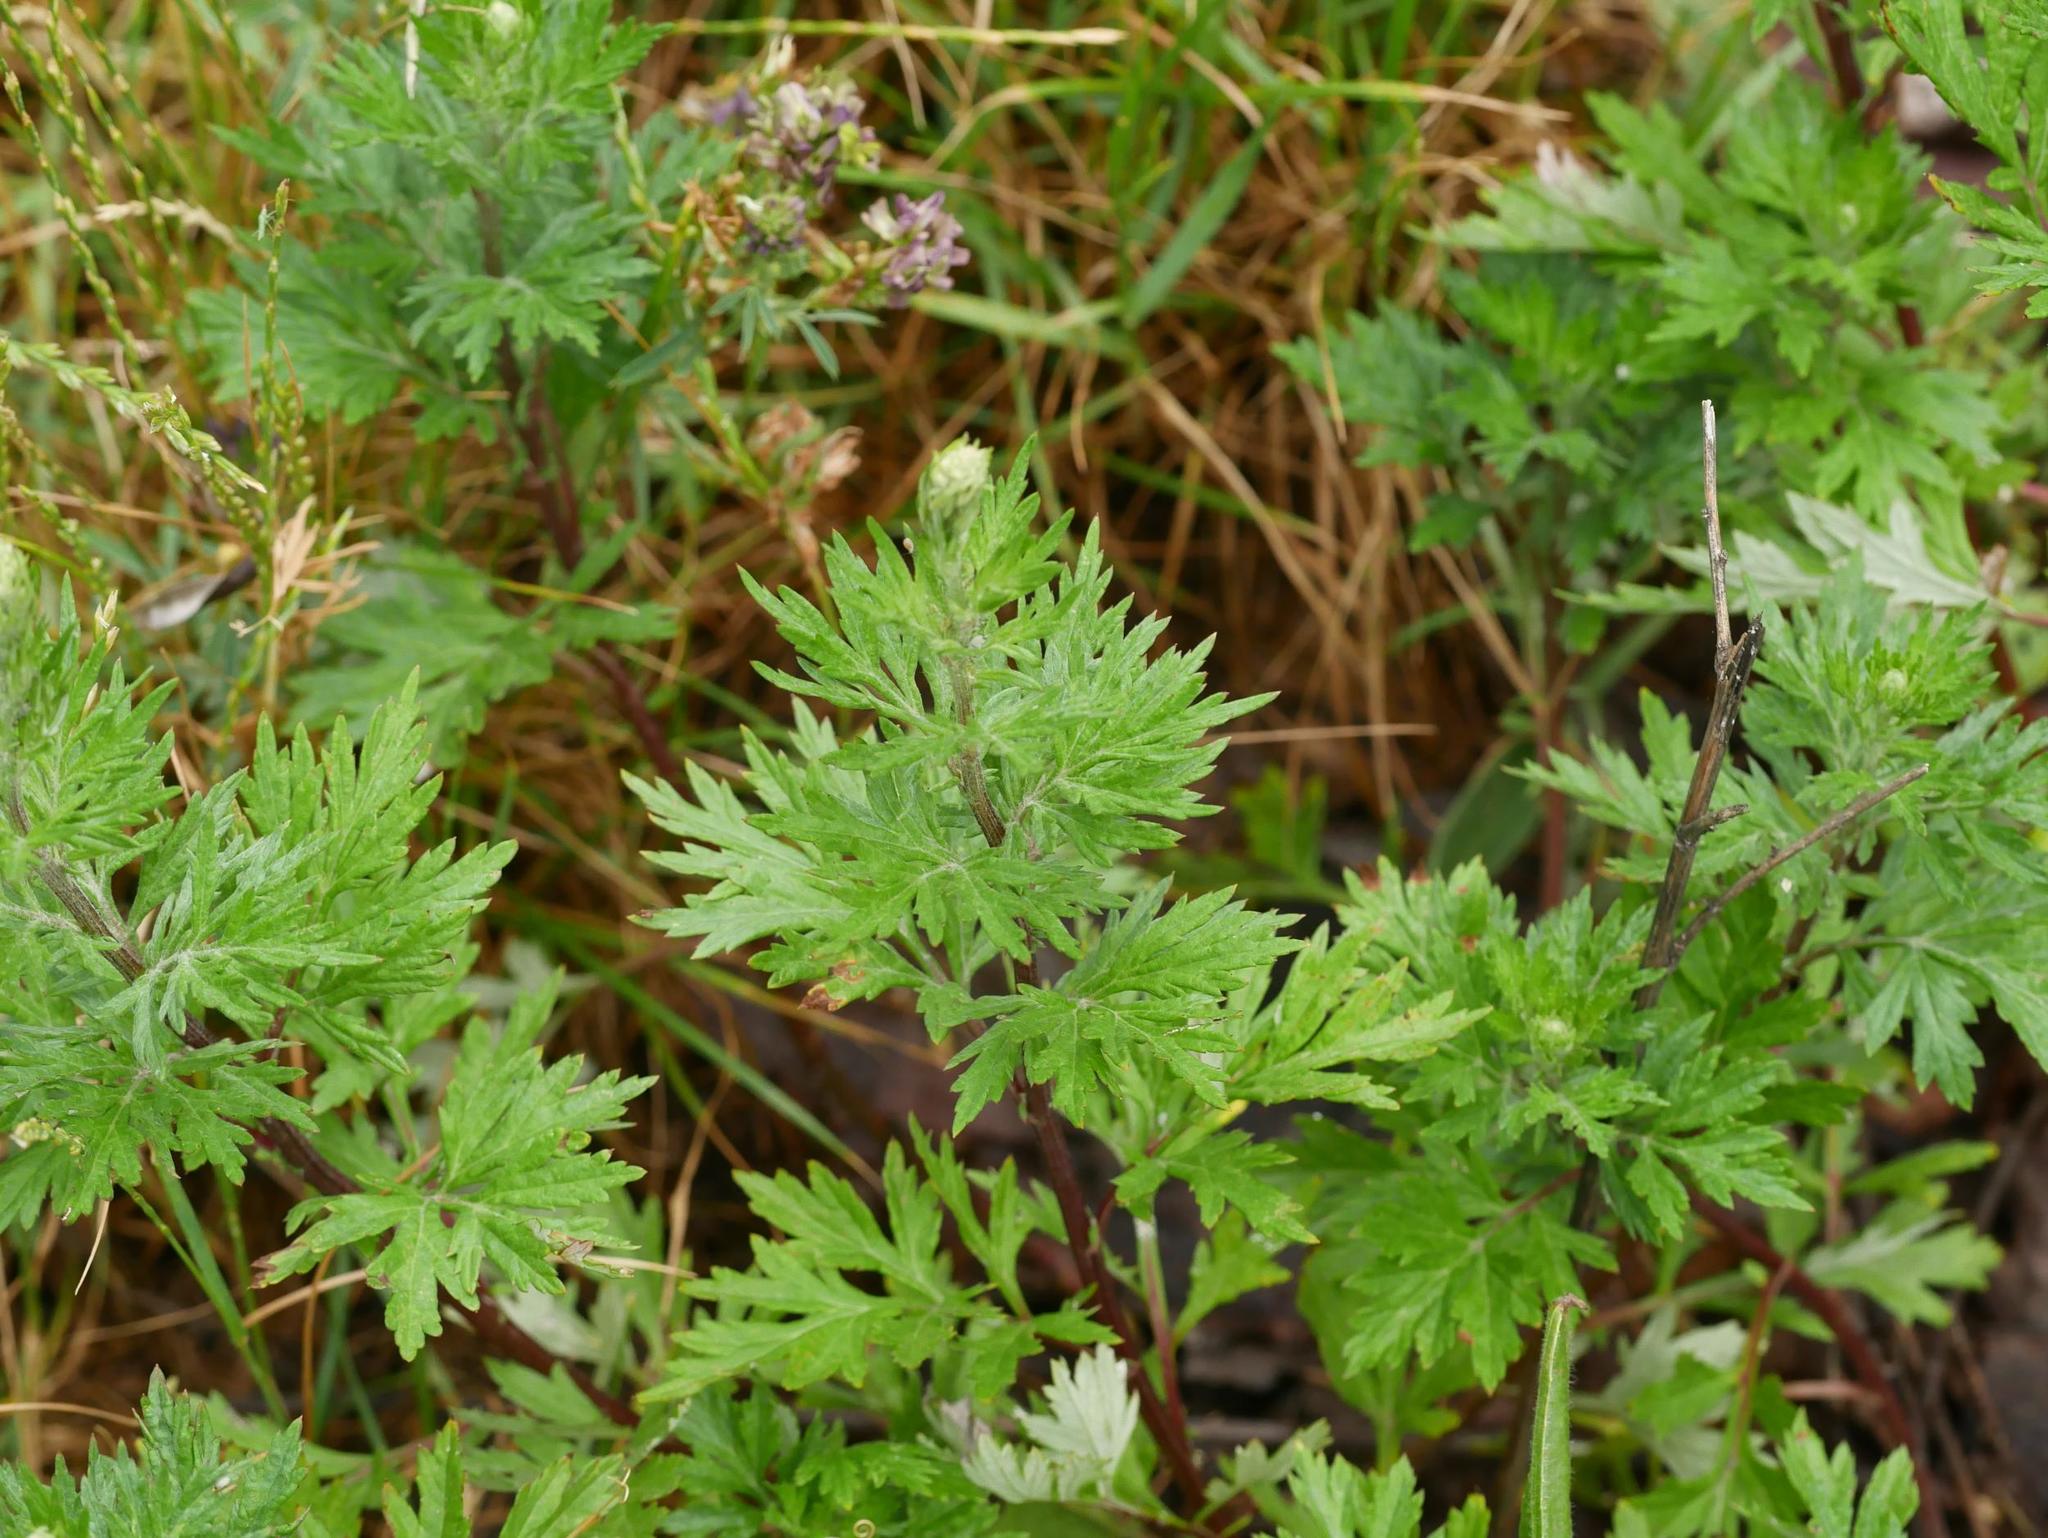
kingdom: Plantae
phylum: Tracheophyta
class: Magnoliopsida
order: Asterales
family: Asteraceae
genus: Artemisia
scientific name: Artemisia vulgaris
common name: Mugwort
